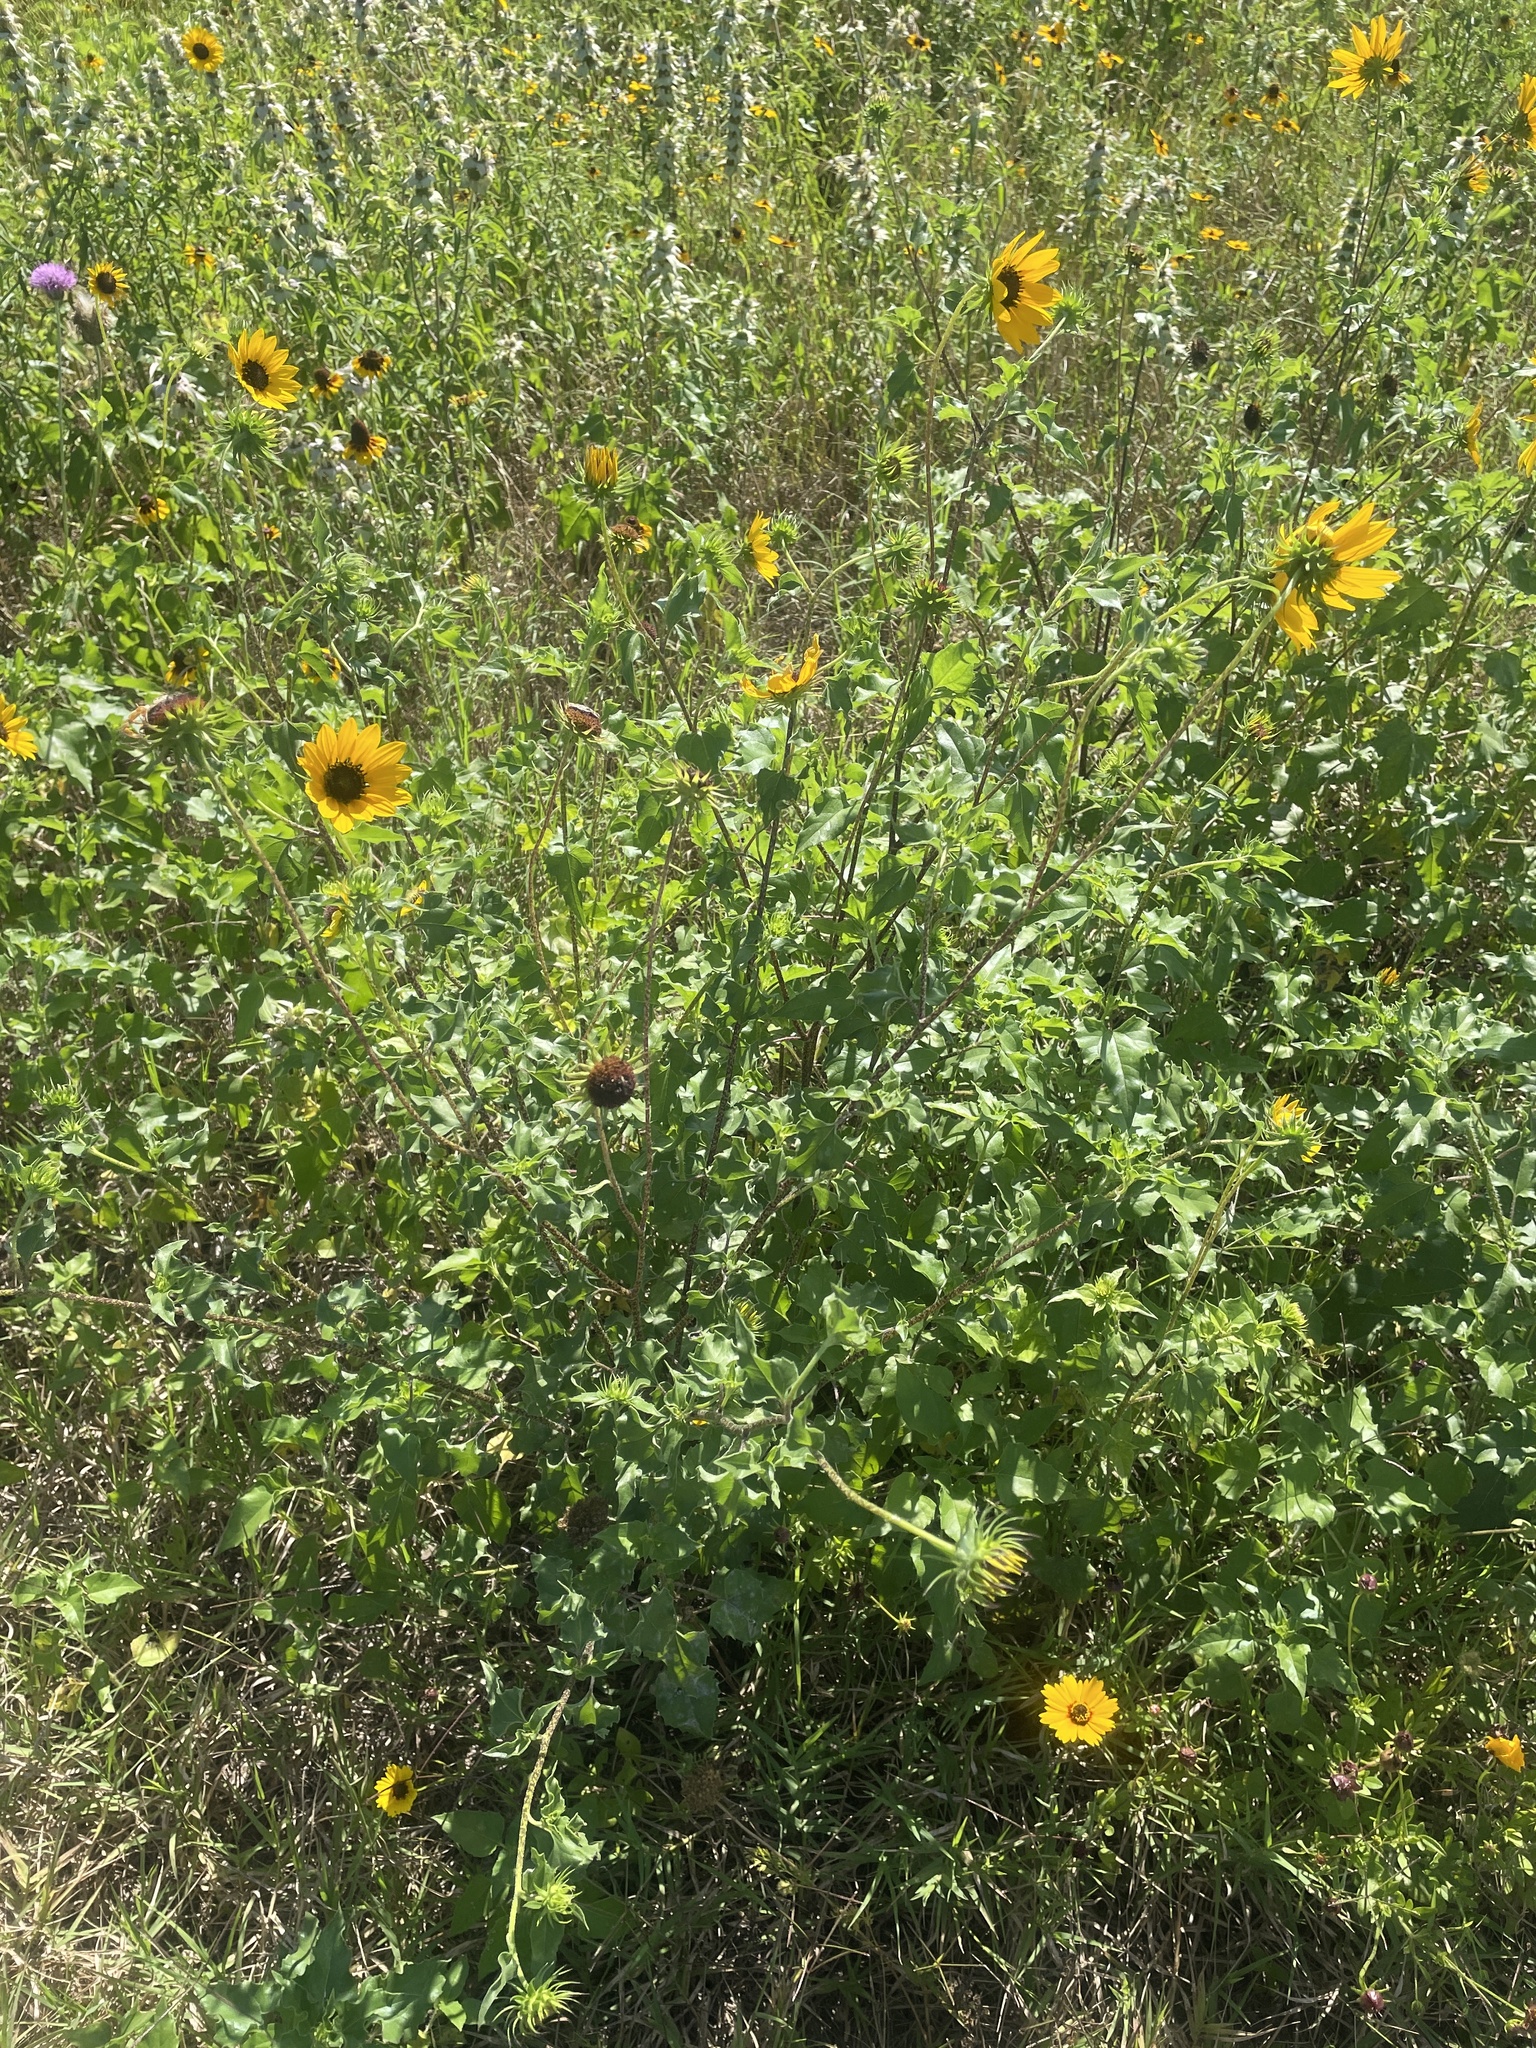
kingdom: Plantae
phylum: Tracheophyta
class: Magnoliopsida
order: Asterales
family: Asteraceae
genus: Helianthus
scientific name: Helianthus debilis
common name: Weak sunflower
